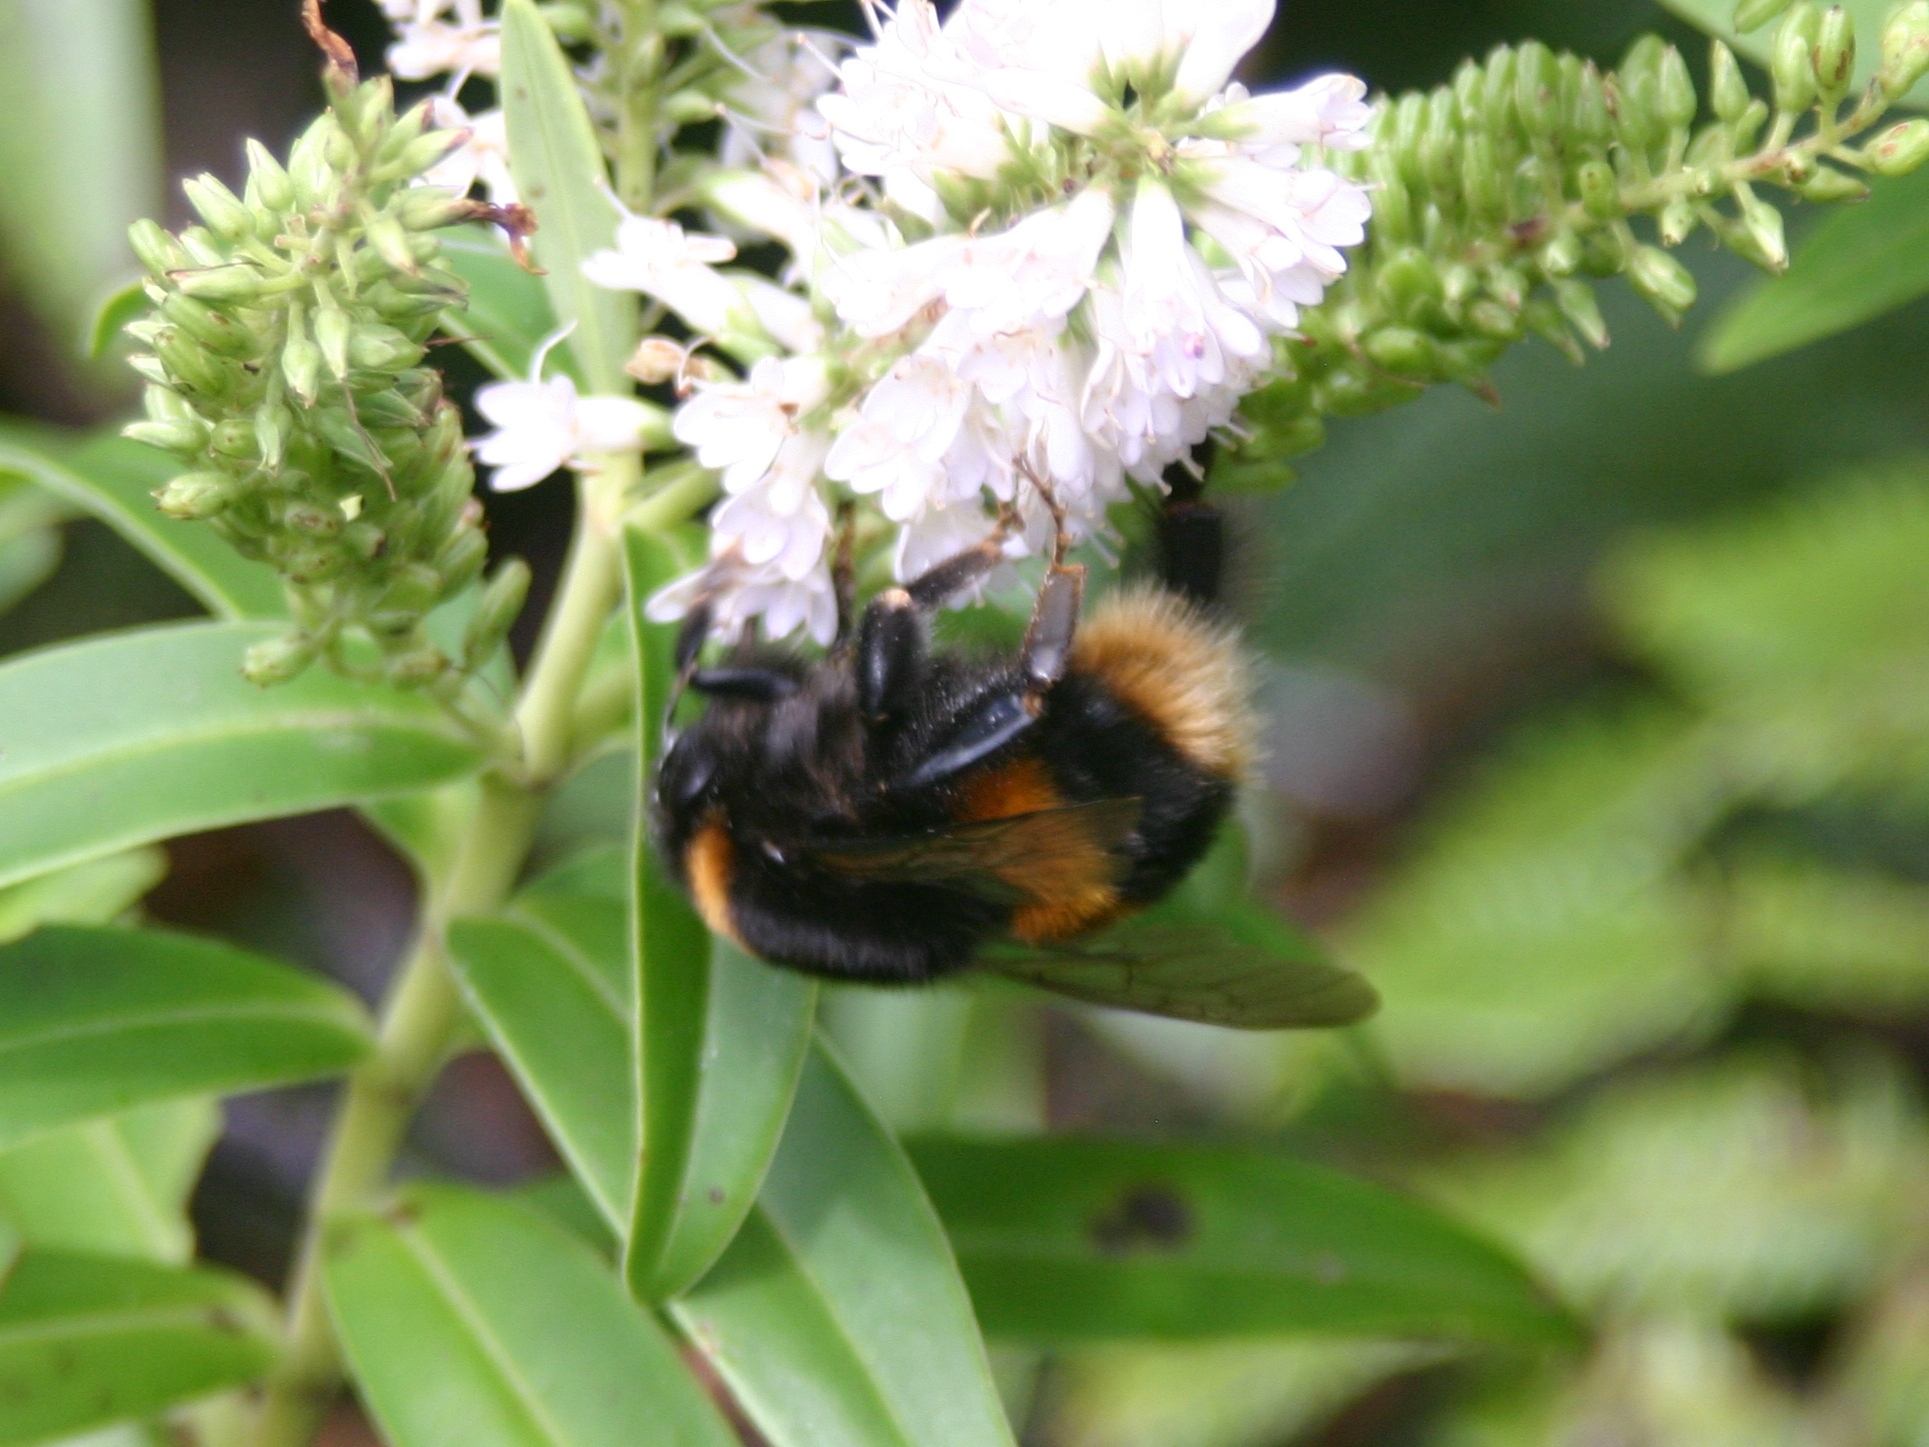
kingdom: Animalia
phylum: Arthropoda
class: Insecta
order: Hymenoptera
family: Apidae
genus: Bombus
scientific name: Bombus terrestris
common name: Buff-tailed bumblebee
